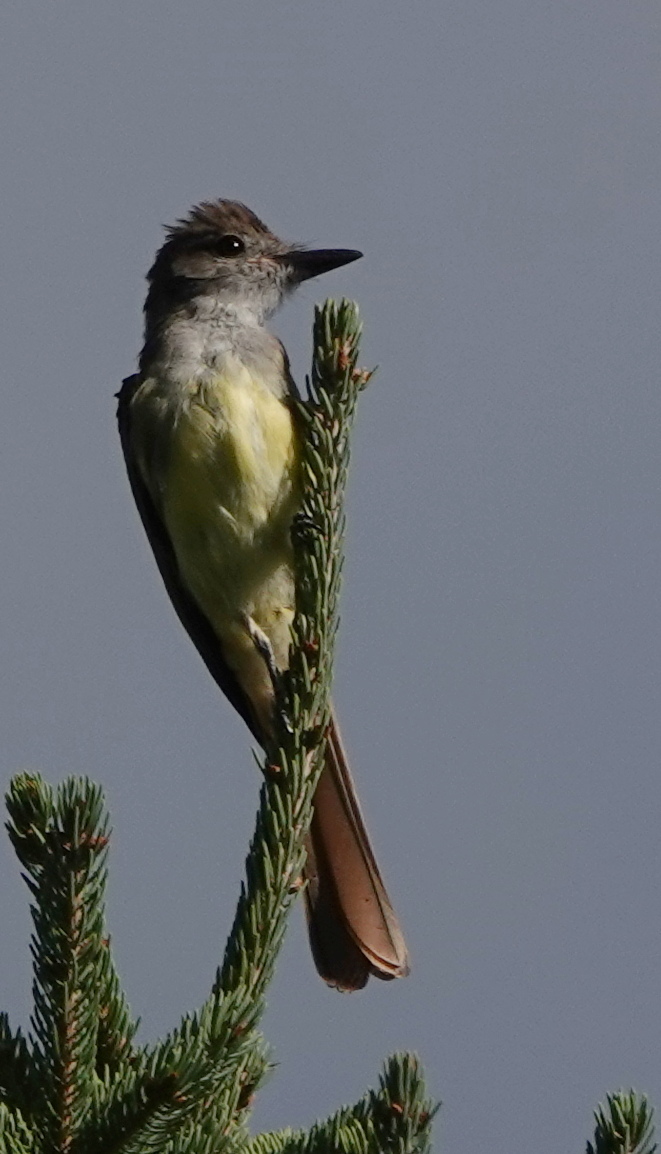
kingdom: Animalia
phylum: Chordata
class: Aves
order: Passeriformes
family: Tyrannidae
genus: Myiarchus
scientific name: Myiarchus crinitus
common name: Great crested flycatcher
